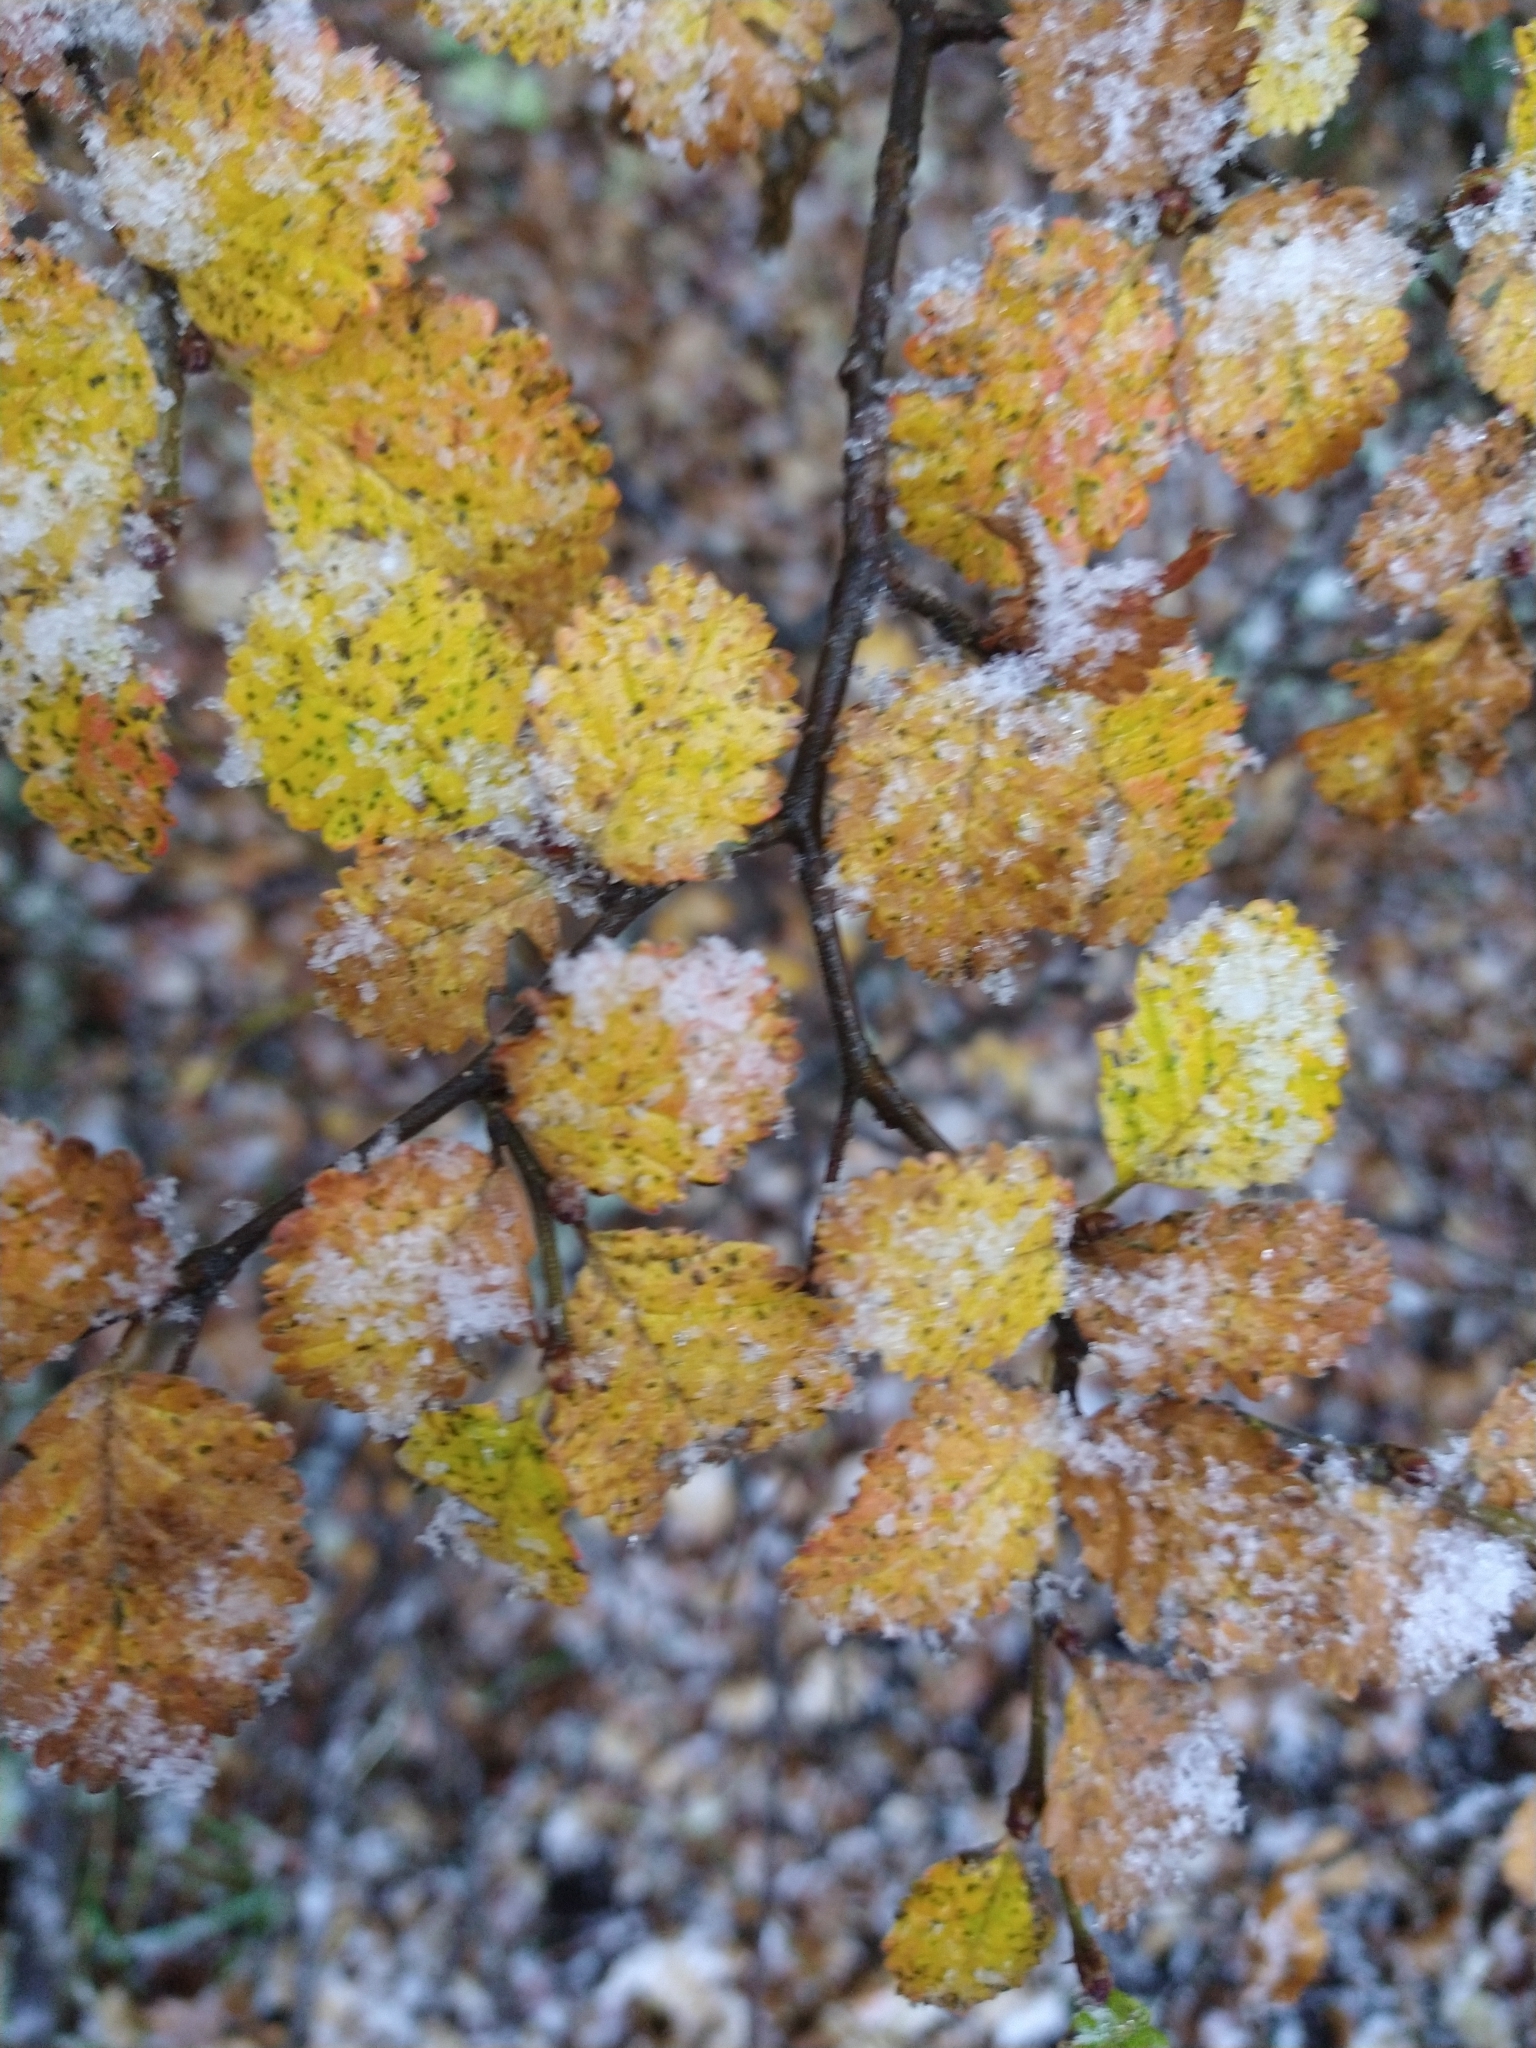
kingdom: Plantae
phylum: Tracheophyta
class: Magnoliopsida
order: Fagales
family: Nothofagaceae
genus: Nothofagus
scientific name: Nothofagus pumilio
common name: Lenga beech
